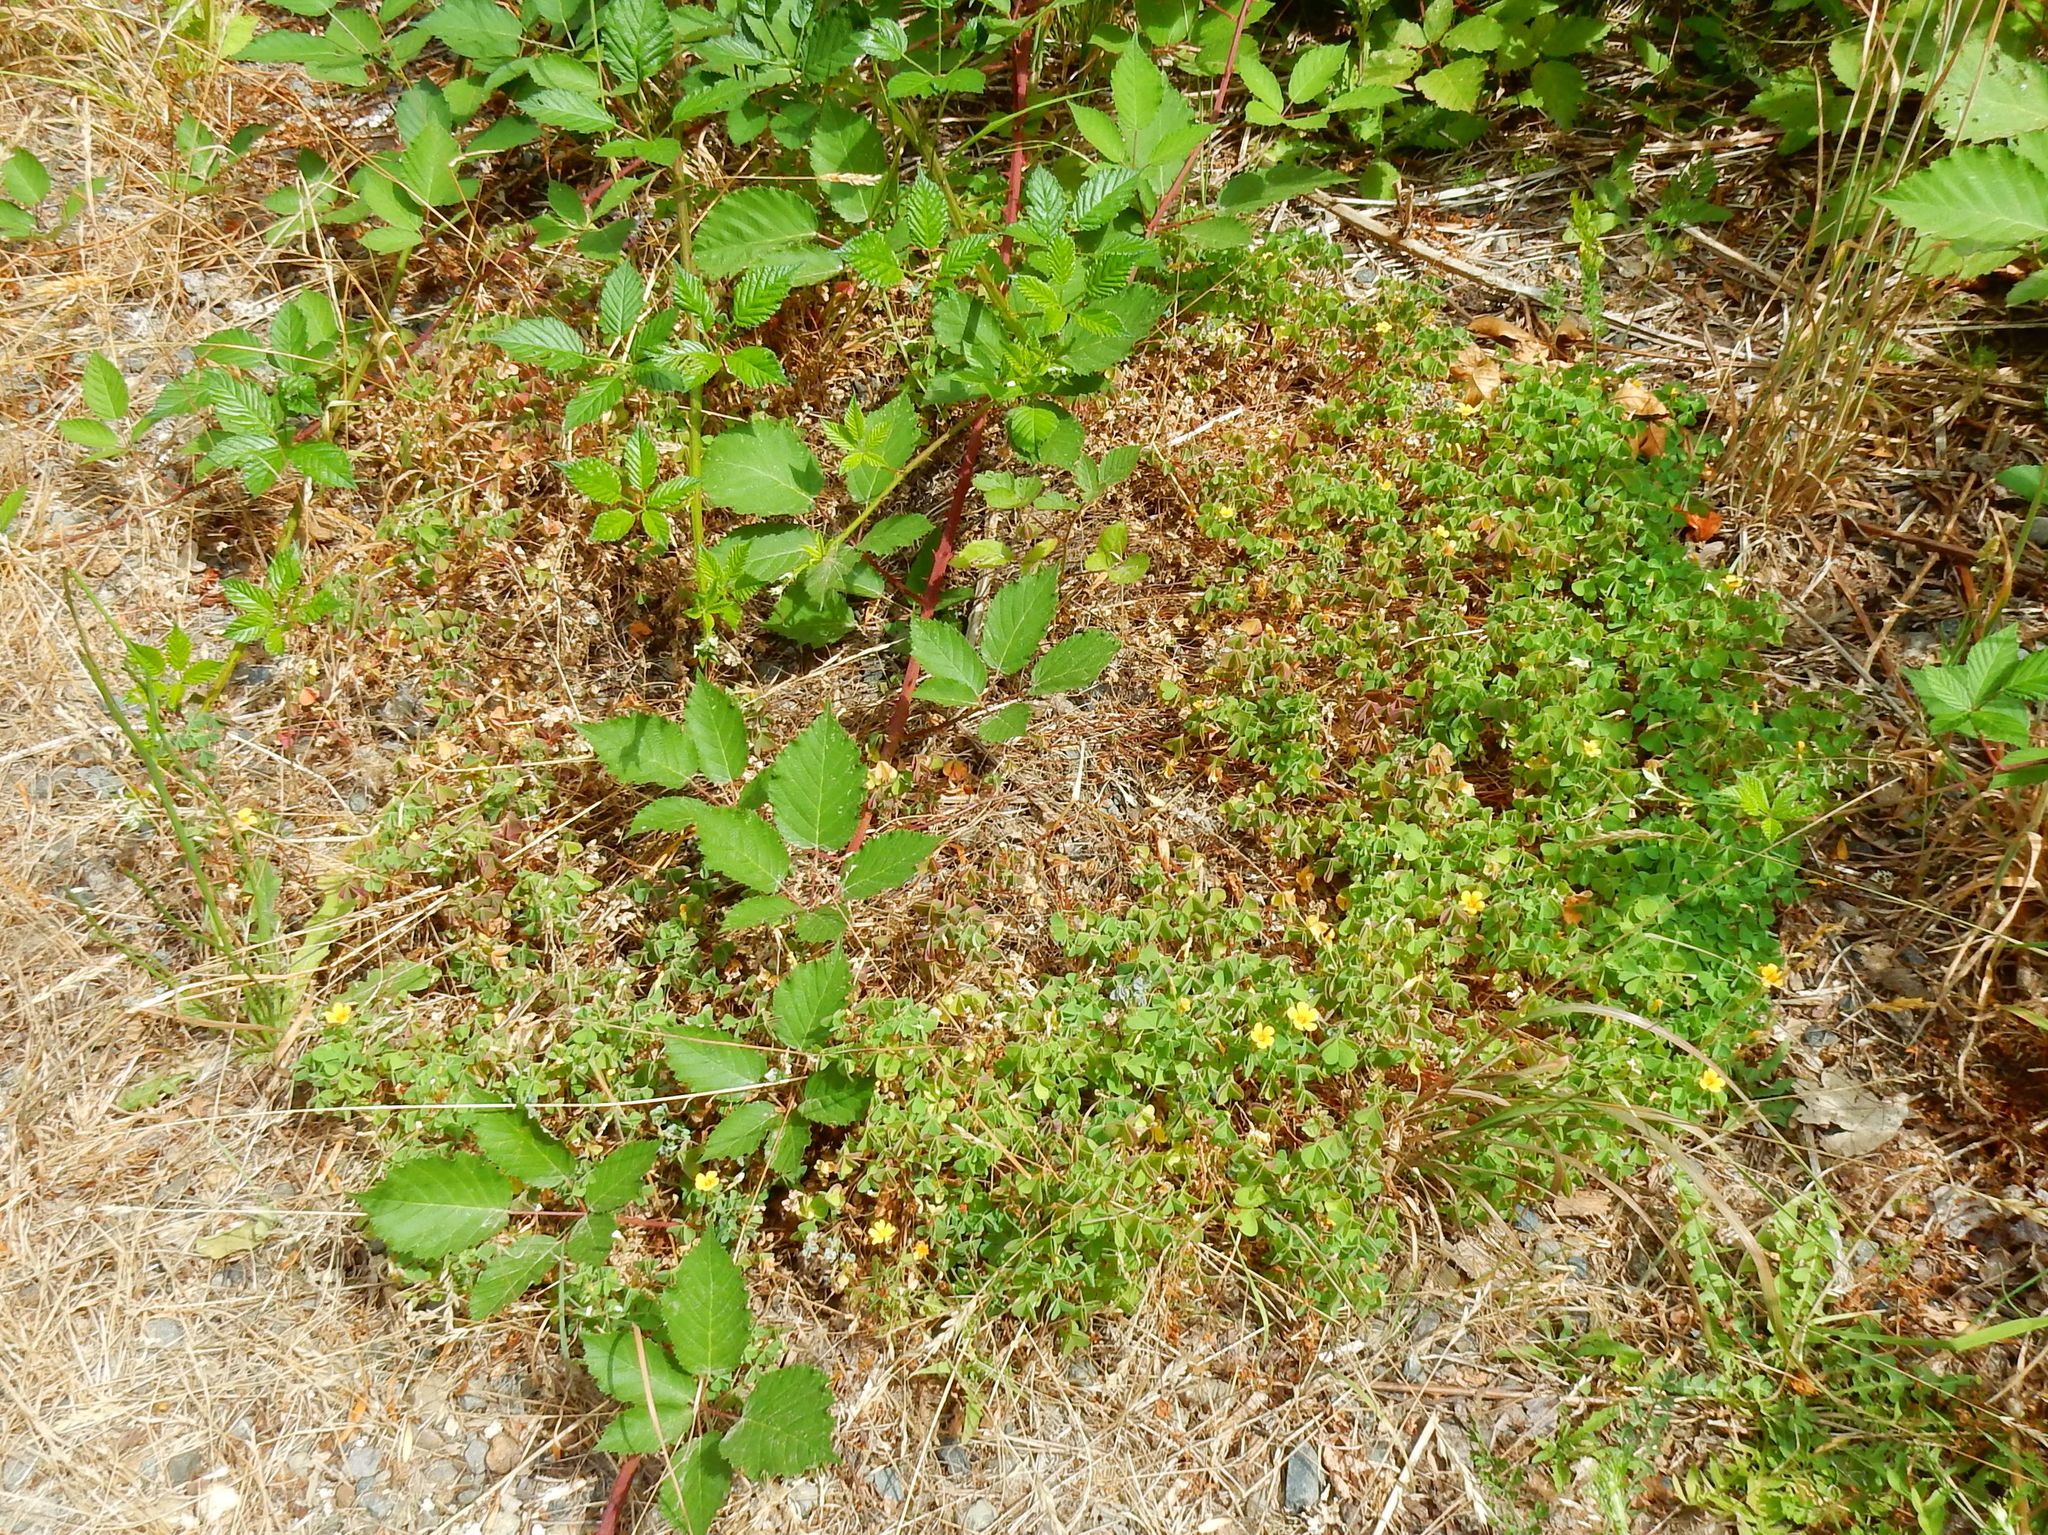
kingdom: Plantae
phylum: Tracheophyta
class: Magnoliopsida
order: Oxalidales
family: Oxalidaceae
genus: Oxalis
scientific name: Oxalis suksdorfii
